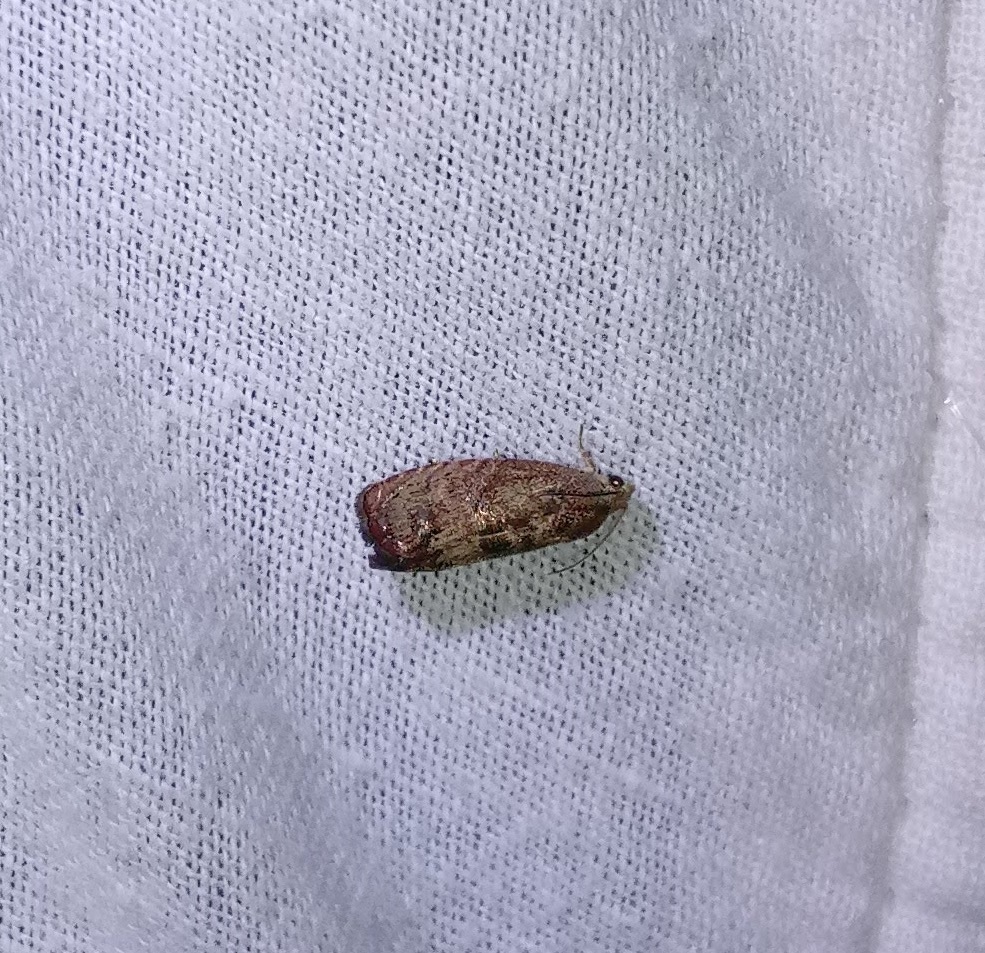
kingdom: Animalia
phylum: Arthropoda
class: Insecta
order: Lepidoptera
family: Tortricidae
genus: Cydia
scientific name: Cydia latiferreana
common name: Filbertworm moth
